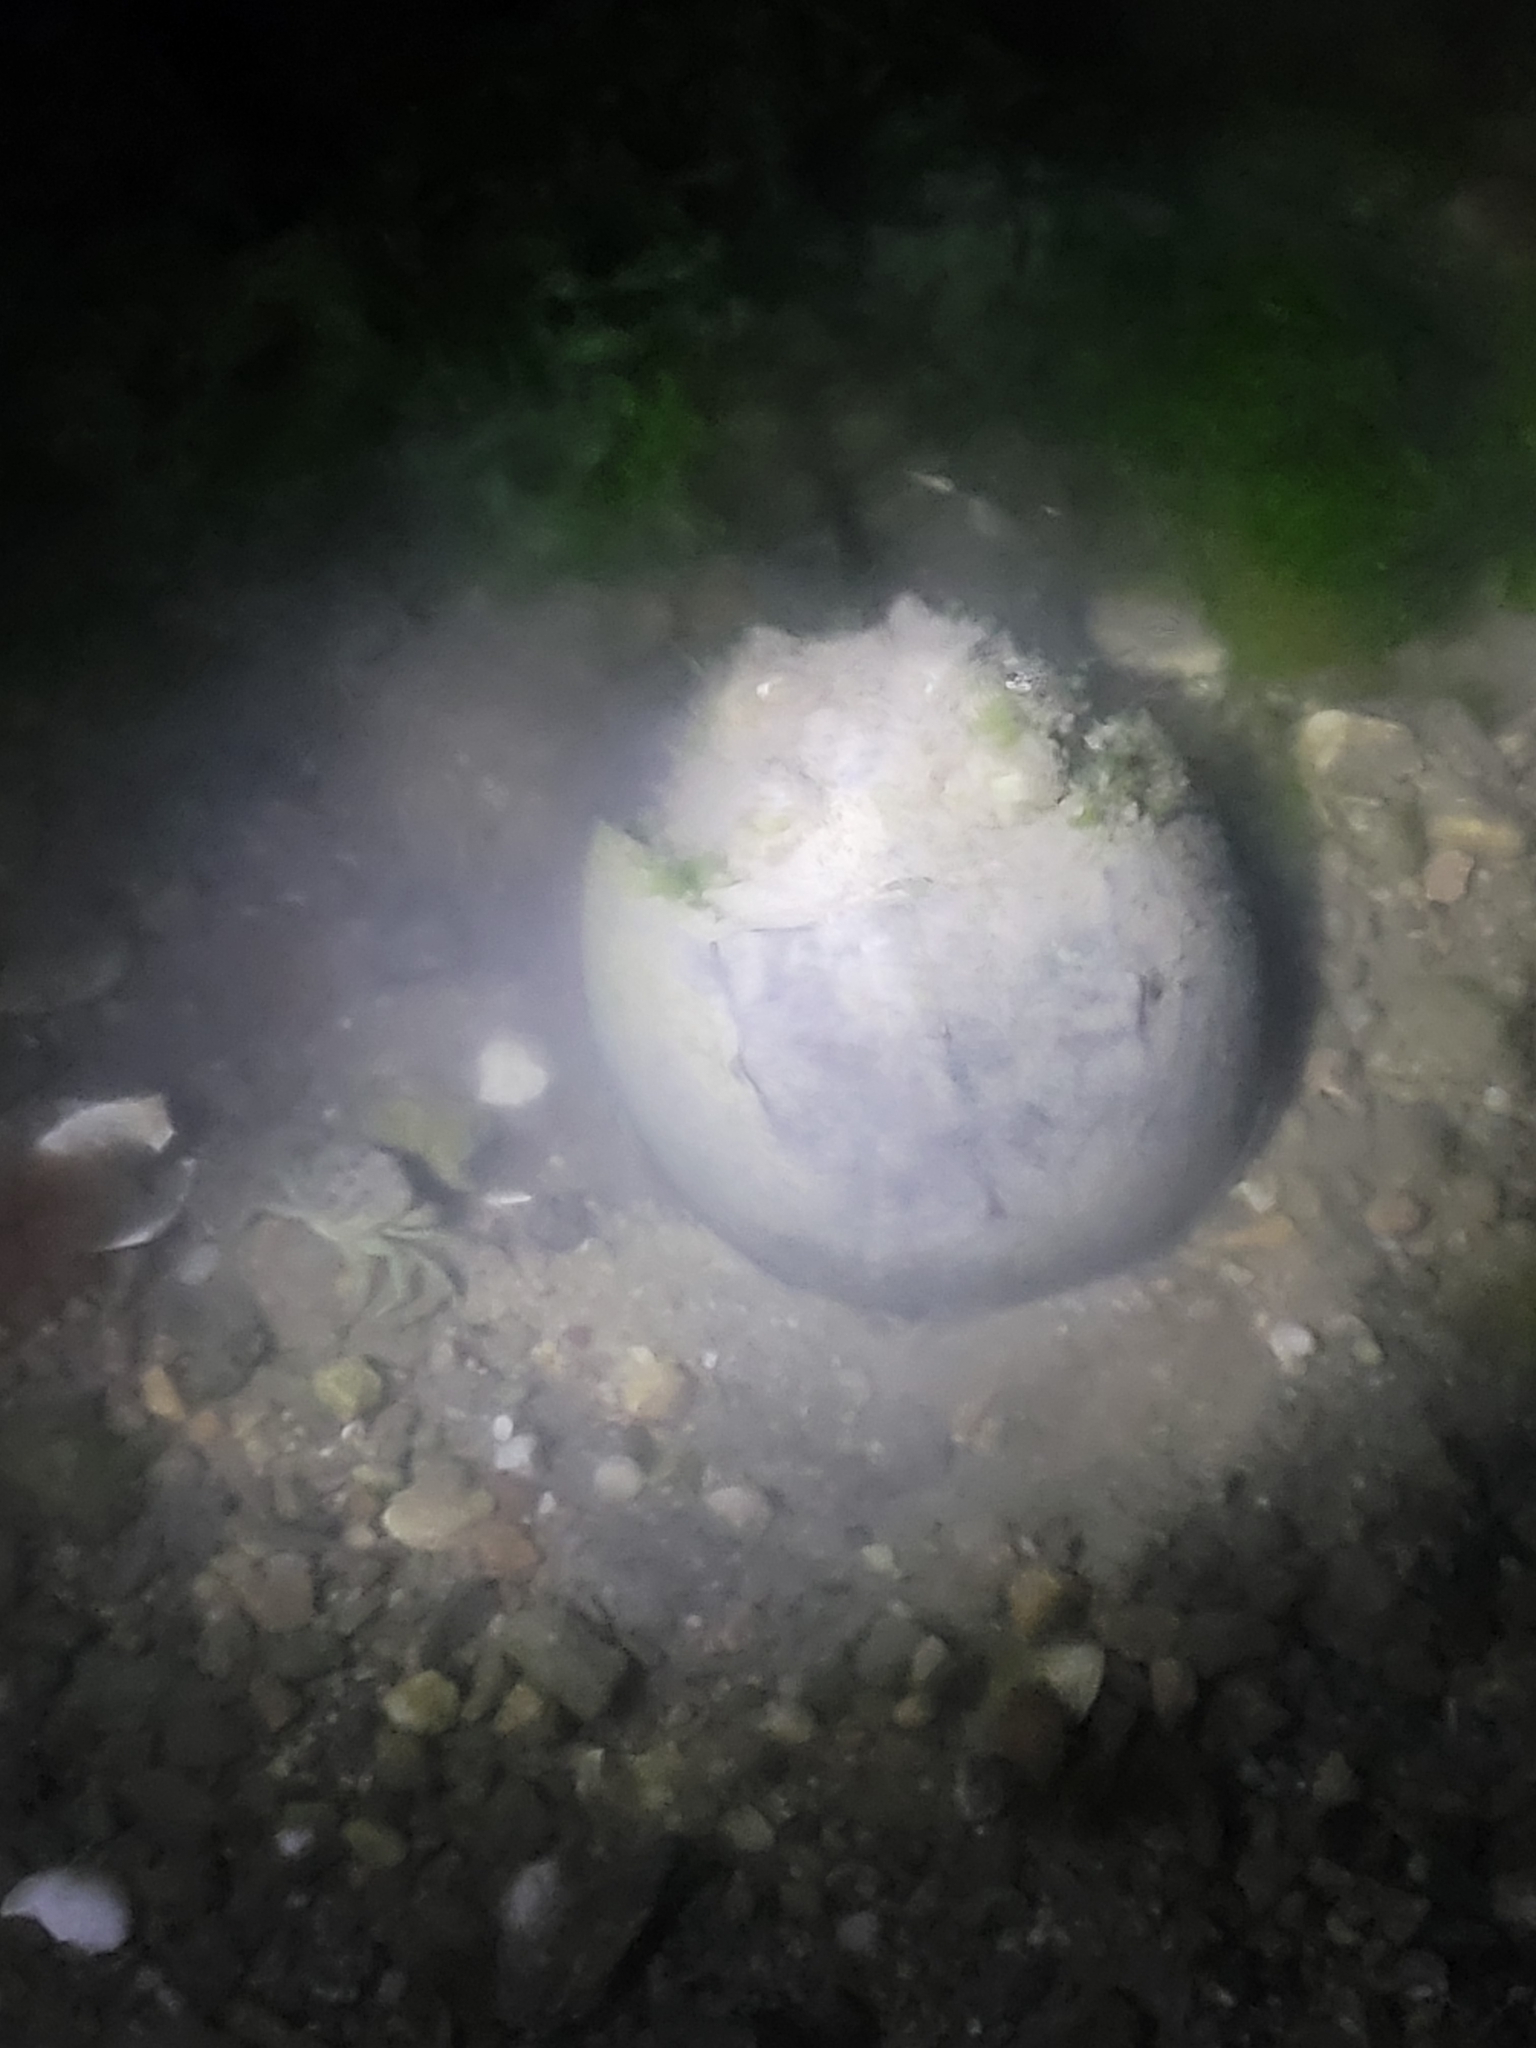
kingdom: Animalia
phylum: Arthropoda
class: Merostomata
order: Xiphosurida
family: Limulidae
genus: Limulus
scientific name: Limulus polyphemus
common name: Horseshoe crab
